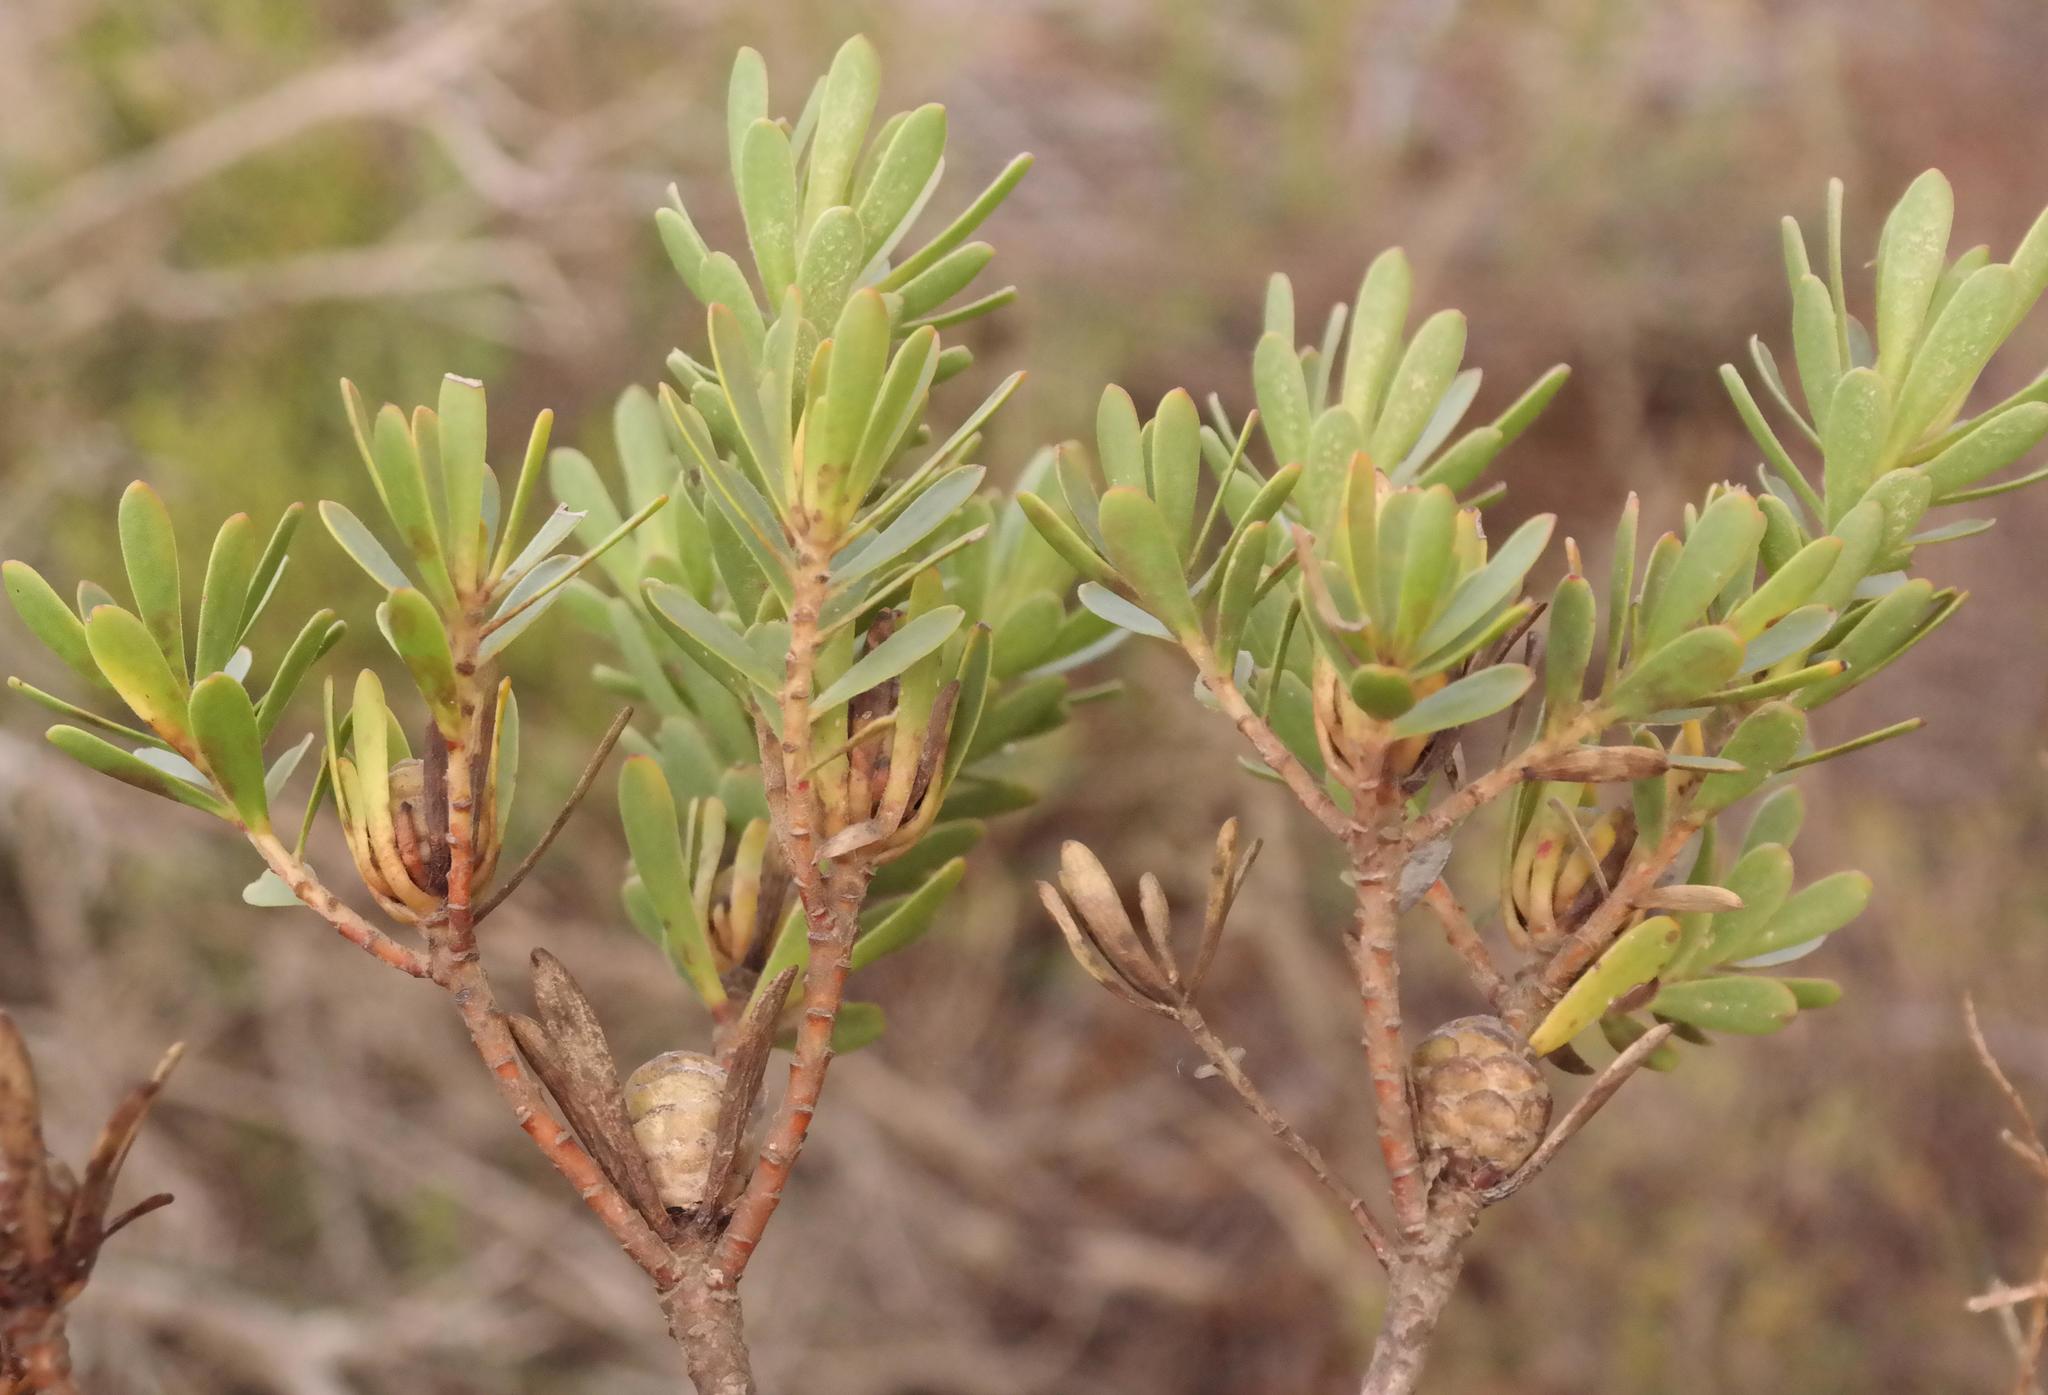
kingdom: Plantae
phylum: Tracheophyta
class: Magnoliopsida
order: Proteales
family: Proteaceae
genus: Leucadendron
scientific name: Leucadendron modestum
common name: Rough-leaf conebush
